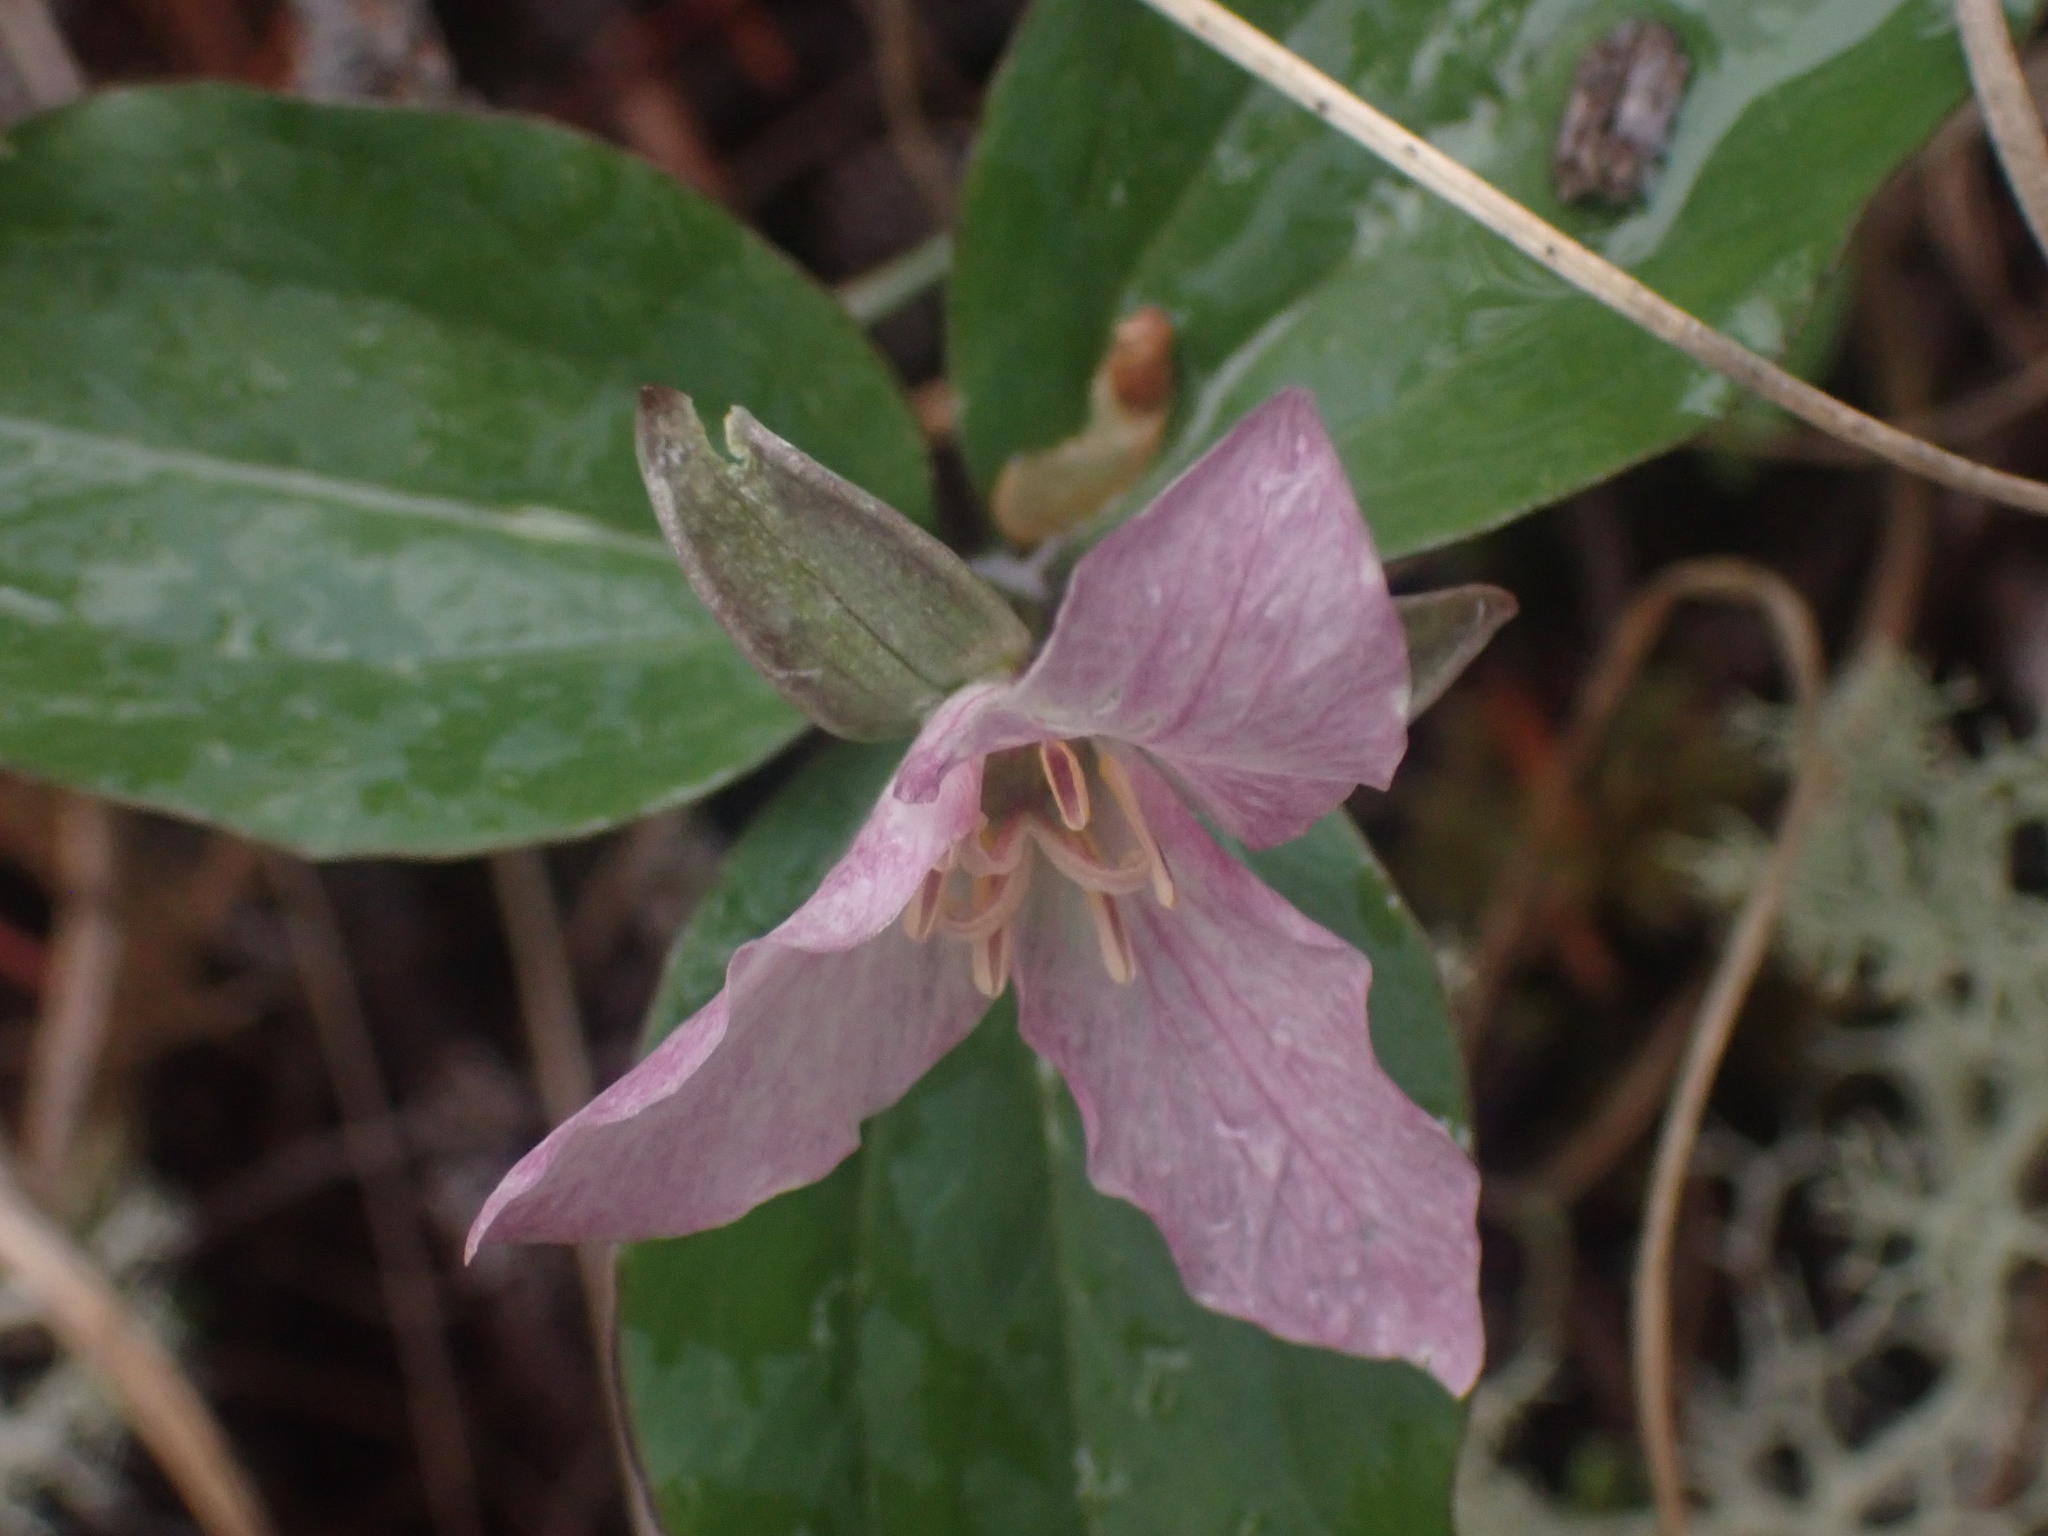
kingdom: Plantae
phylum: Tracheophyta
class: Liliopsida
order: Liliales
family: Melanthiaceae
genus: Trillium
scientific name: Trillium hibbersonii
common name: Hibberson's trillium
